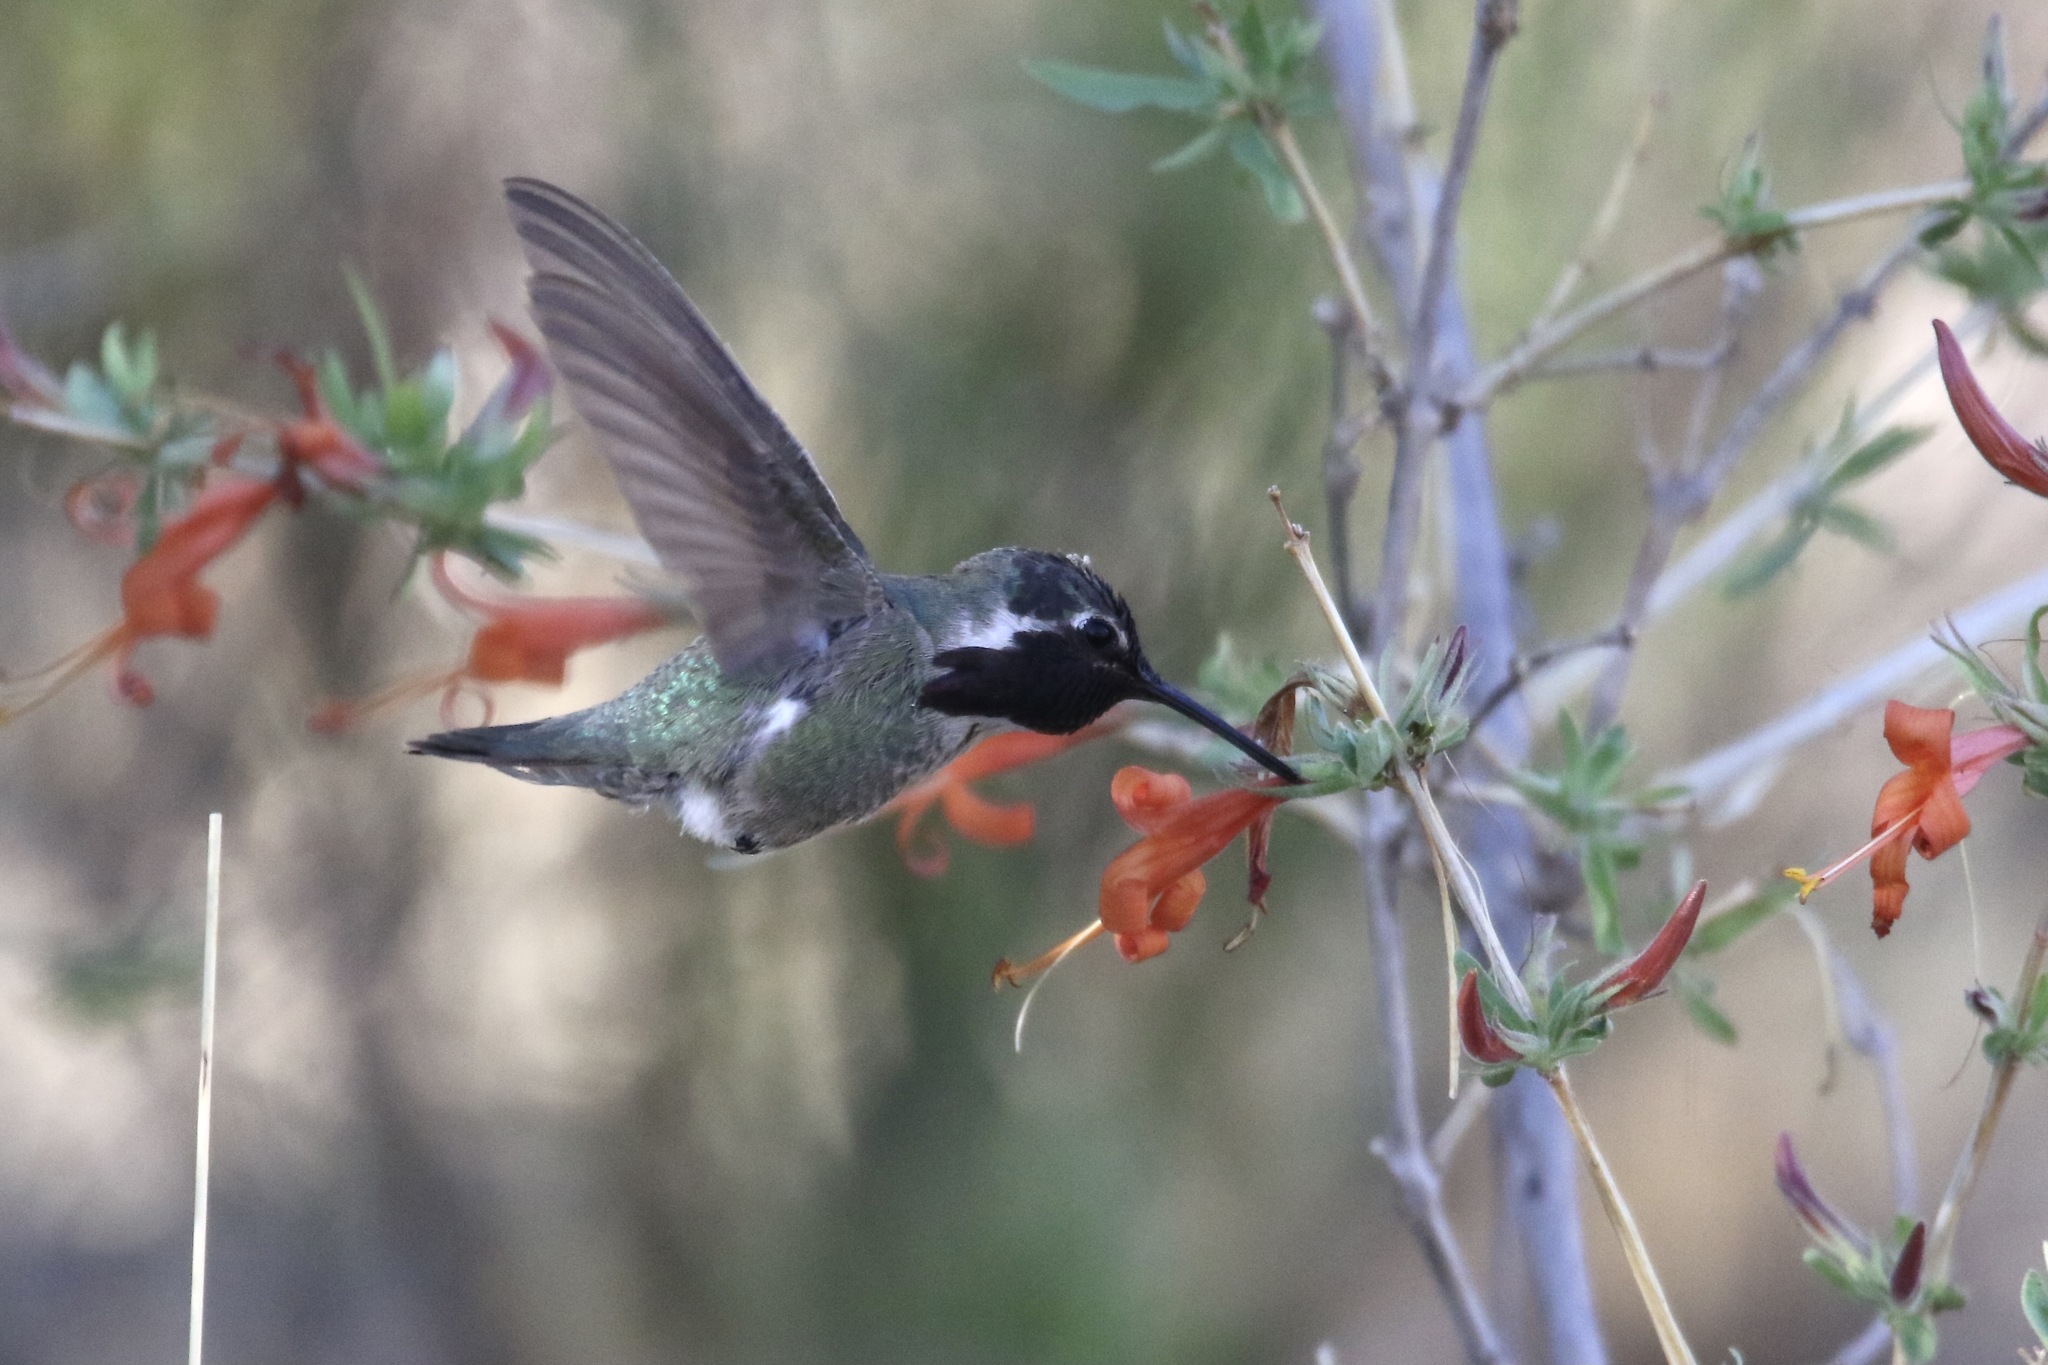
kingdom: Animalia
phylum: Chordata
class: Aves
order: Apodiformes
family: Trochilidae
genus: Calypte
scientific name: Calypte costae
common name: Costa's hummingbird
